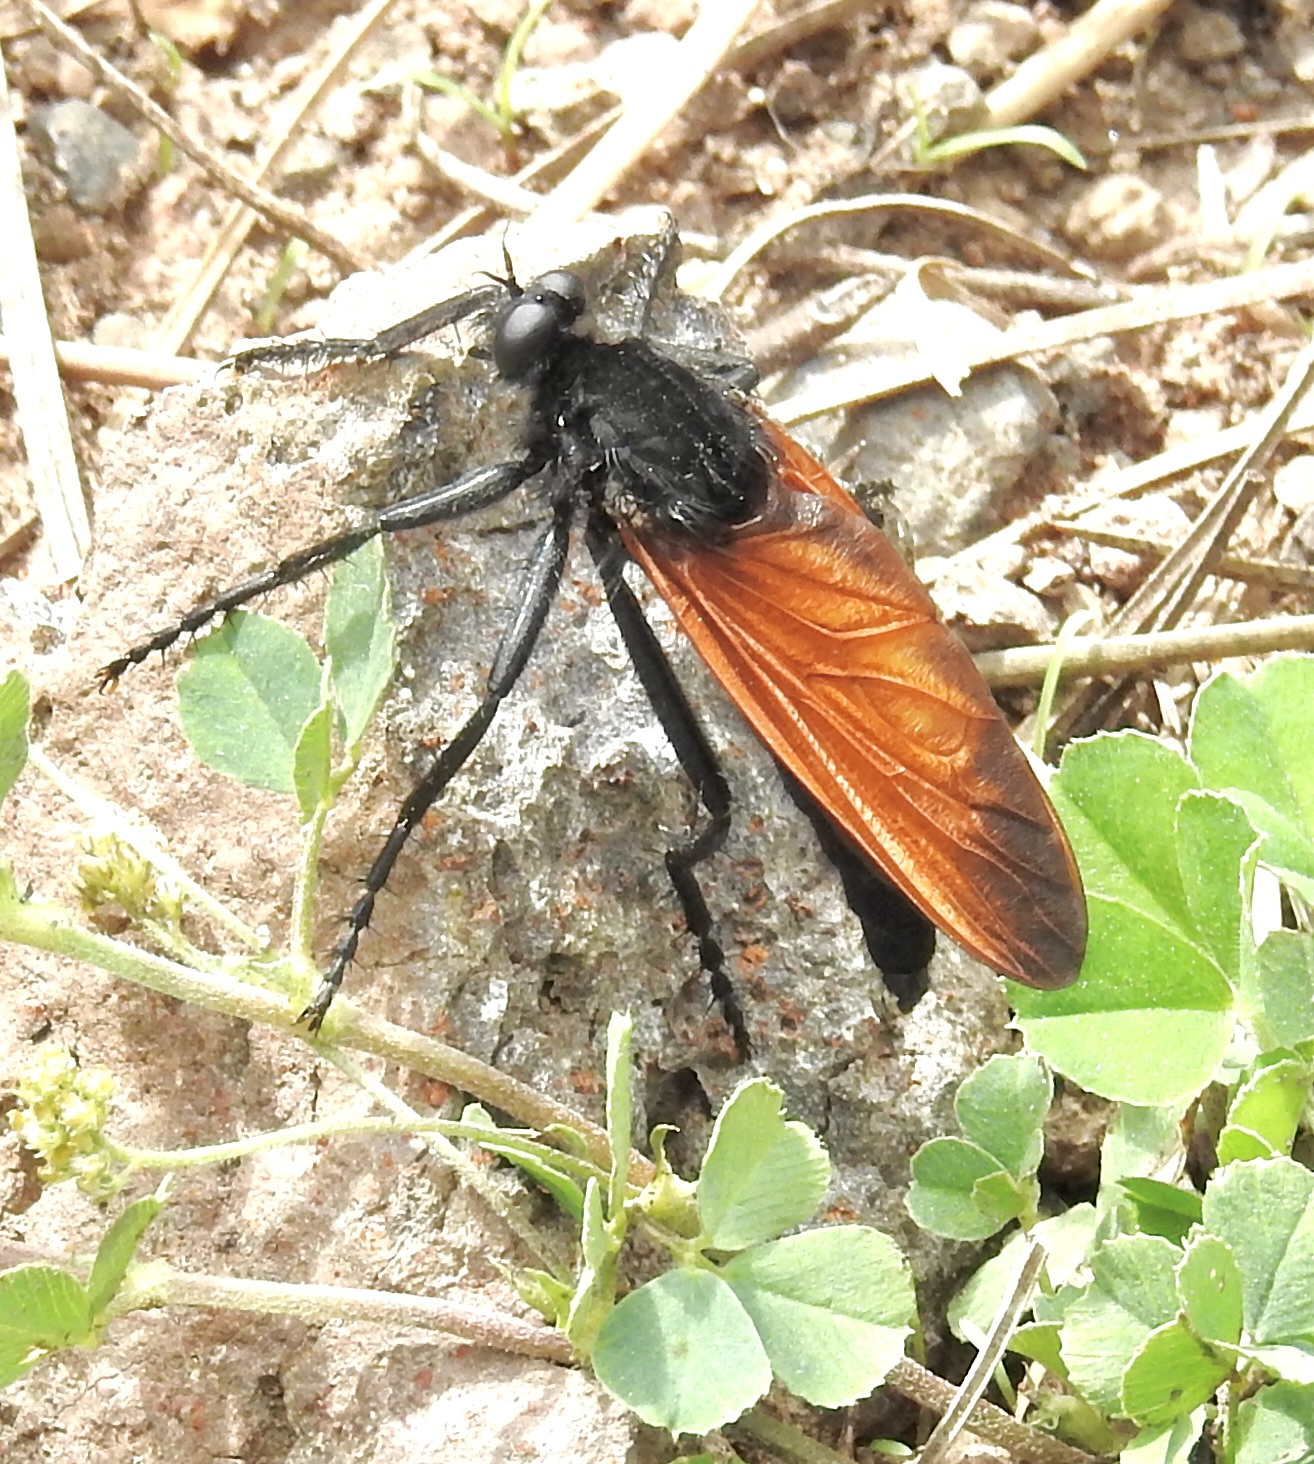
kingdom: Animalia
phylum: Arthropoda
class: Insecta
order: Diptera
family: Asilidae
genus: Wilcoxius
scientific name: Wilcoxius mydas
